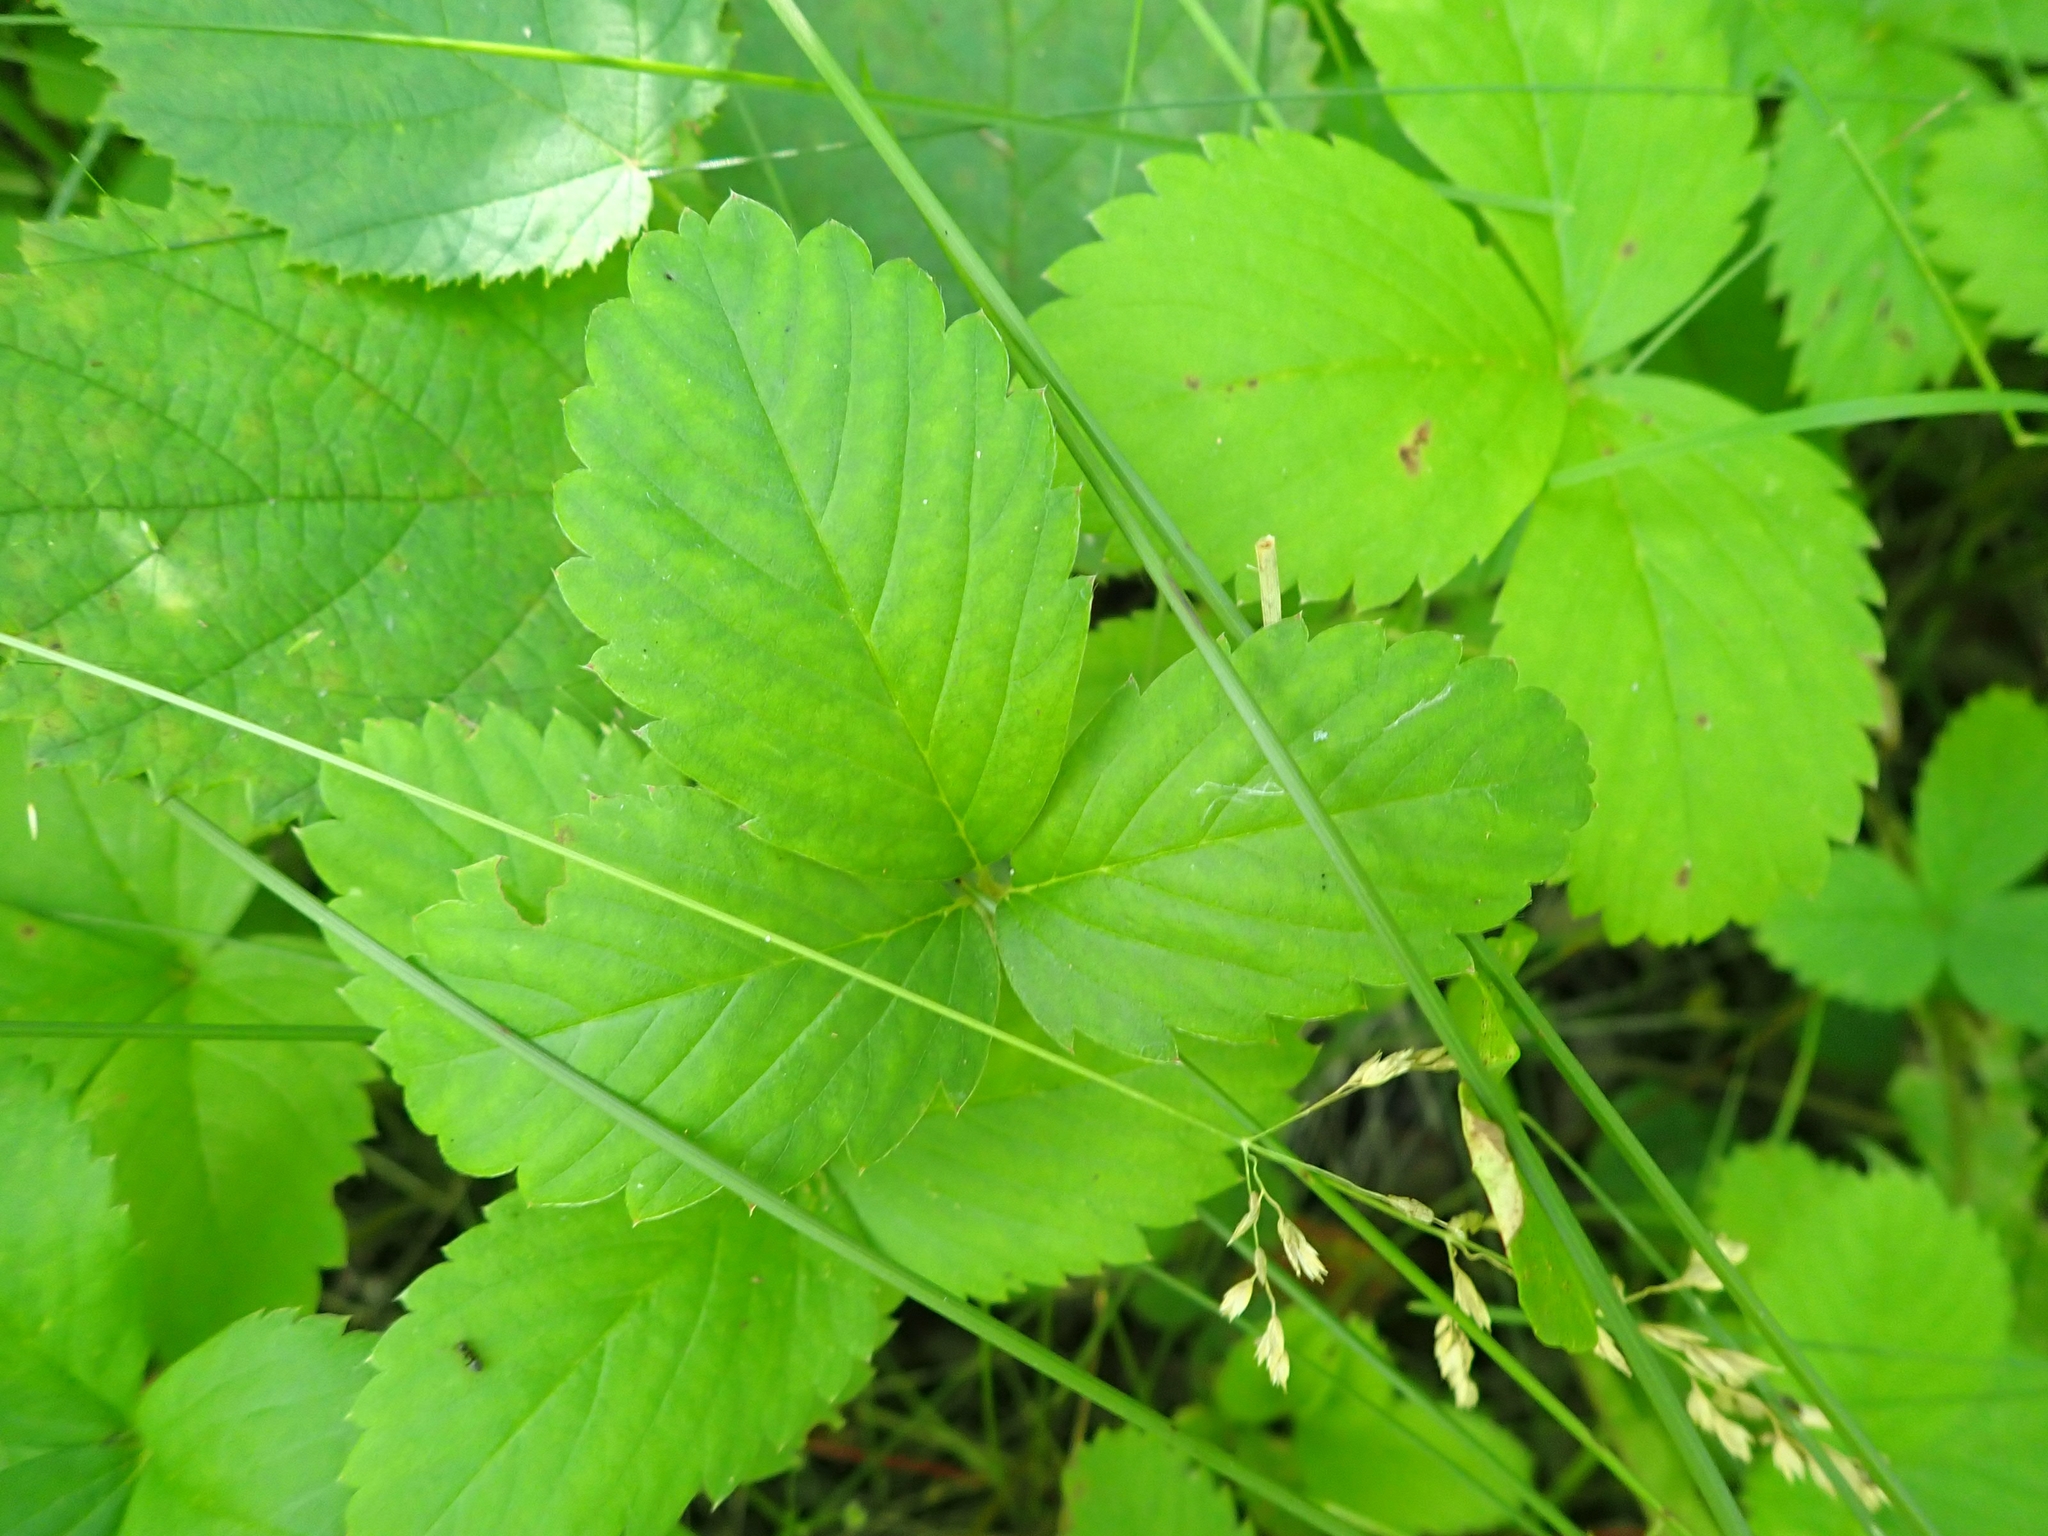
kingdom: Plantae
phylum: Tracheophyta
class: Magnoliopsida
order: Rosales
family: Rosaceae
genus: Fragaria
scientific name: Fragaria virginiana
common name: Thickleaved wild strawberry
